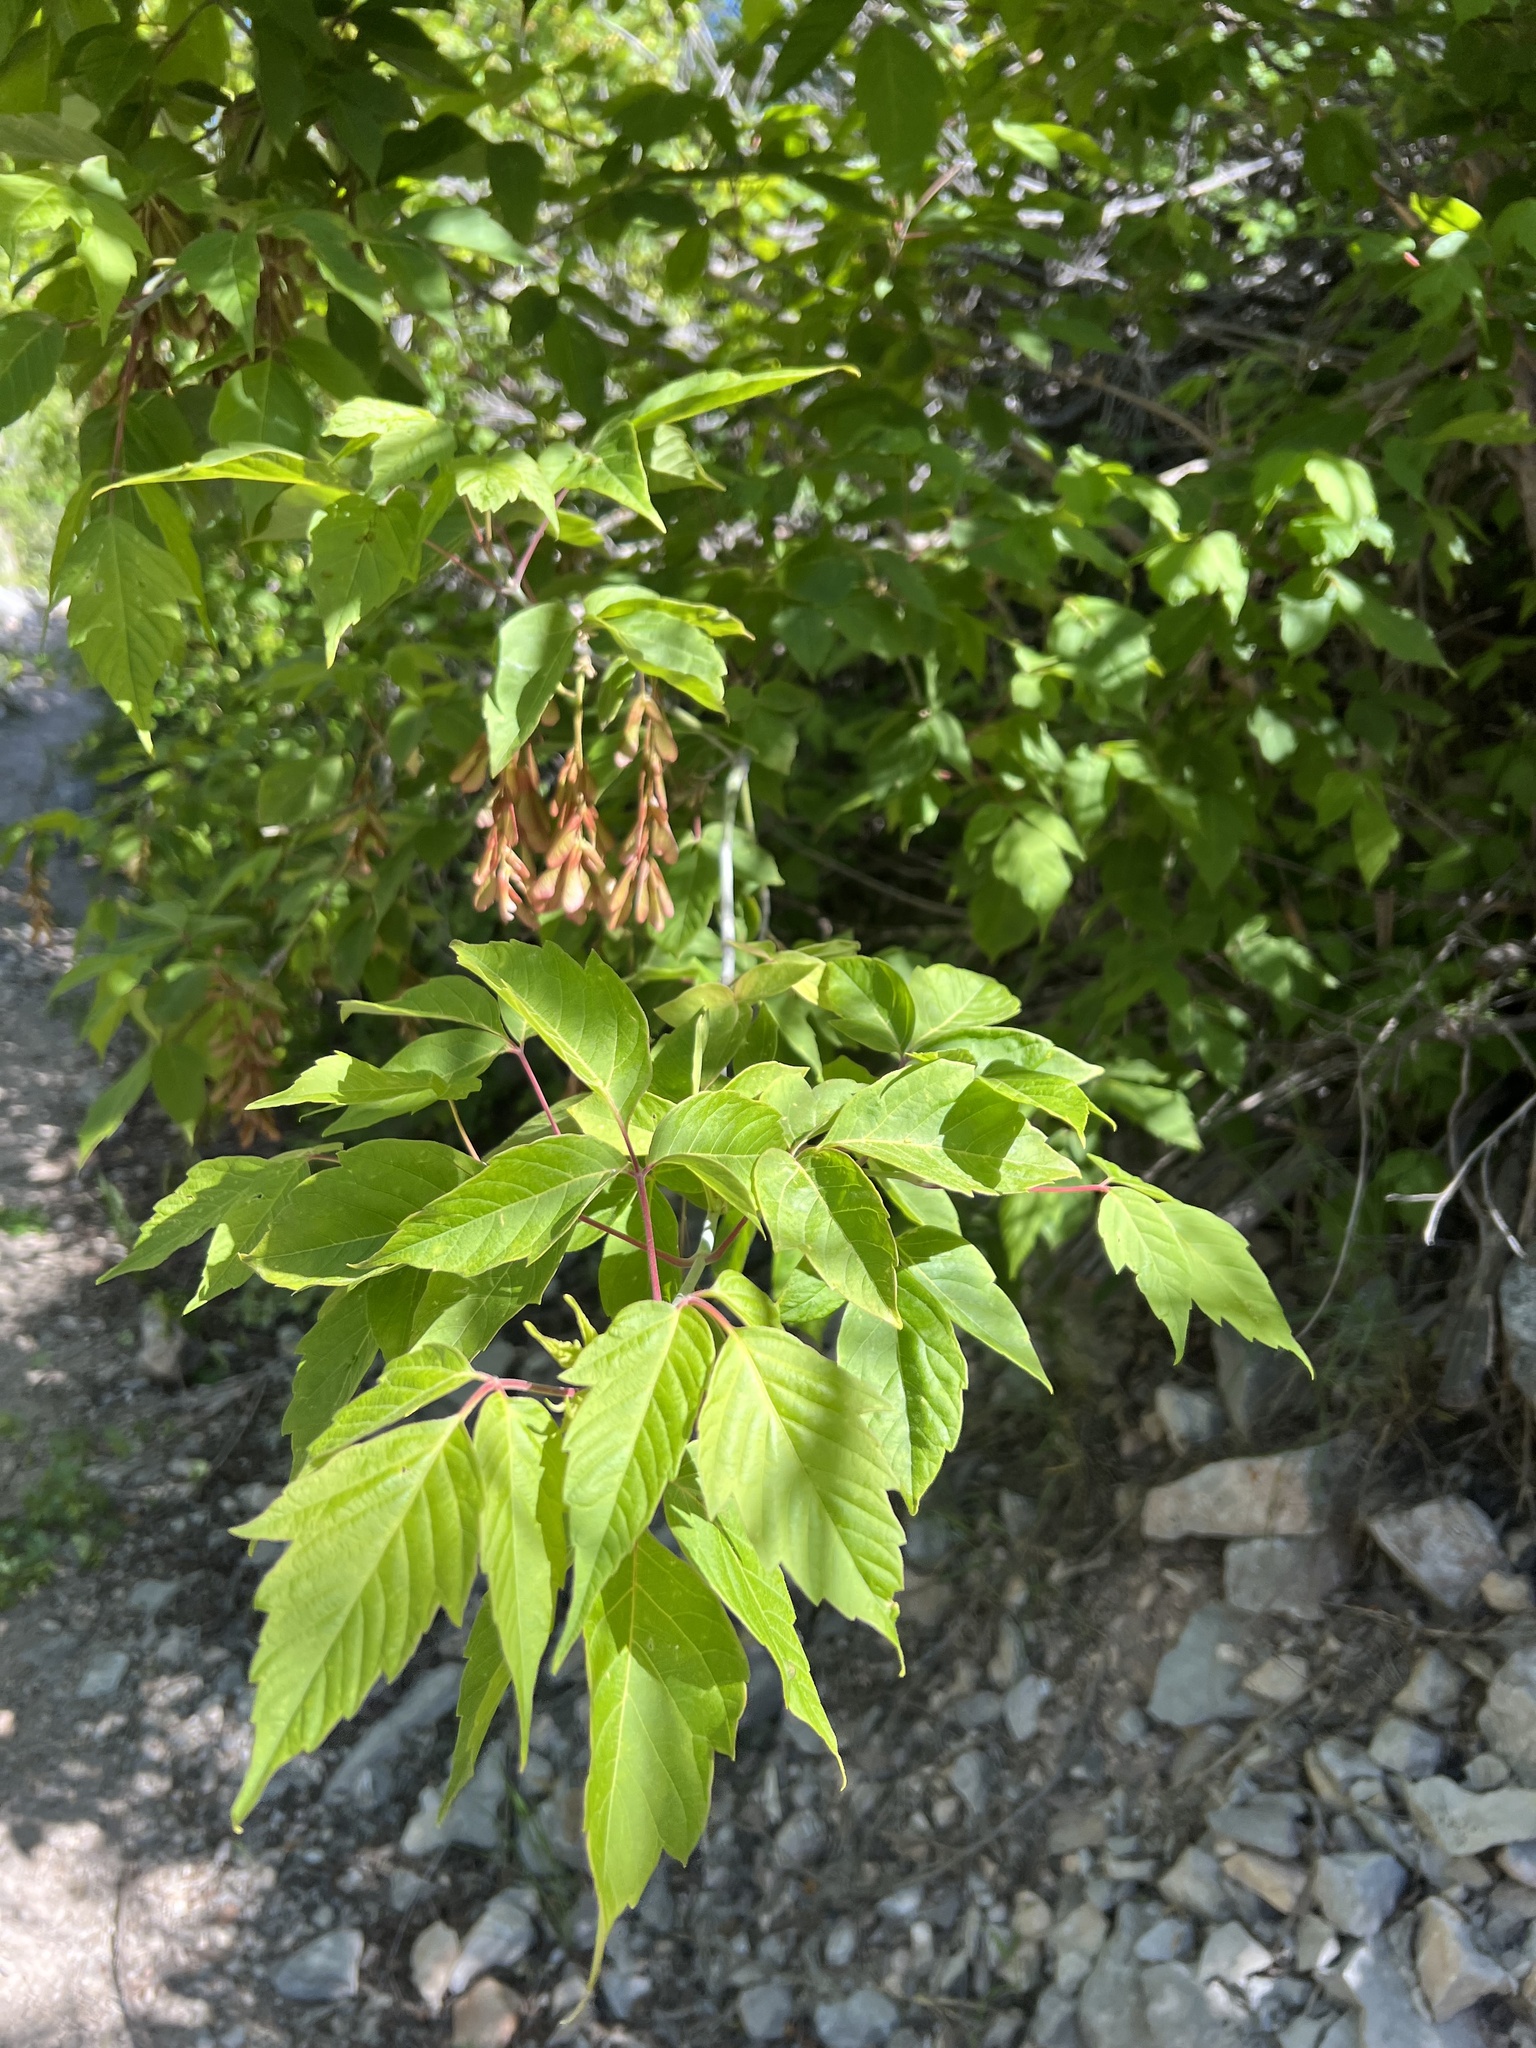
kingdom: Plantae
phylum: Tracheophyta
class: Magnoliopsida
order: Sapindales
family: Sapindaceae
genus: Acer
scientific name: Acer negundo
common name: Ashleaf maple
